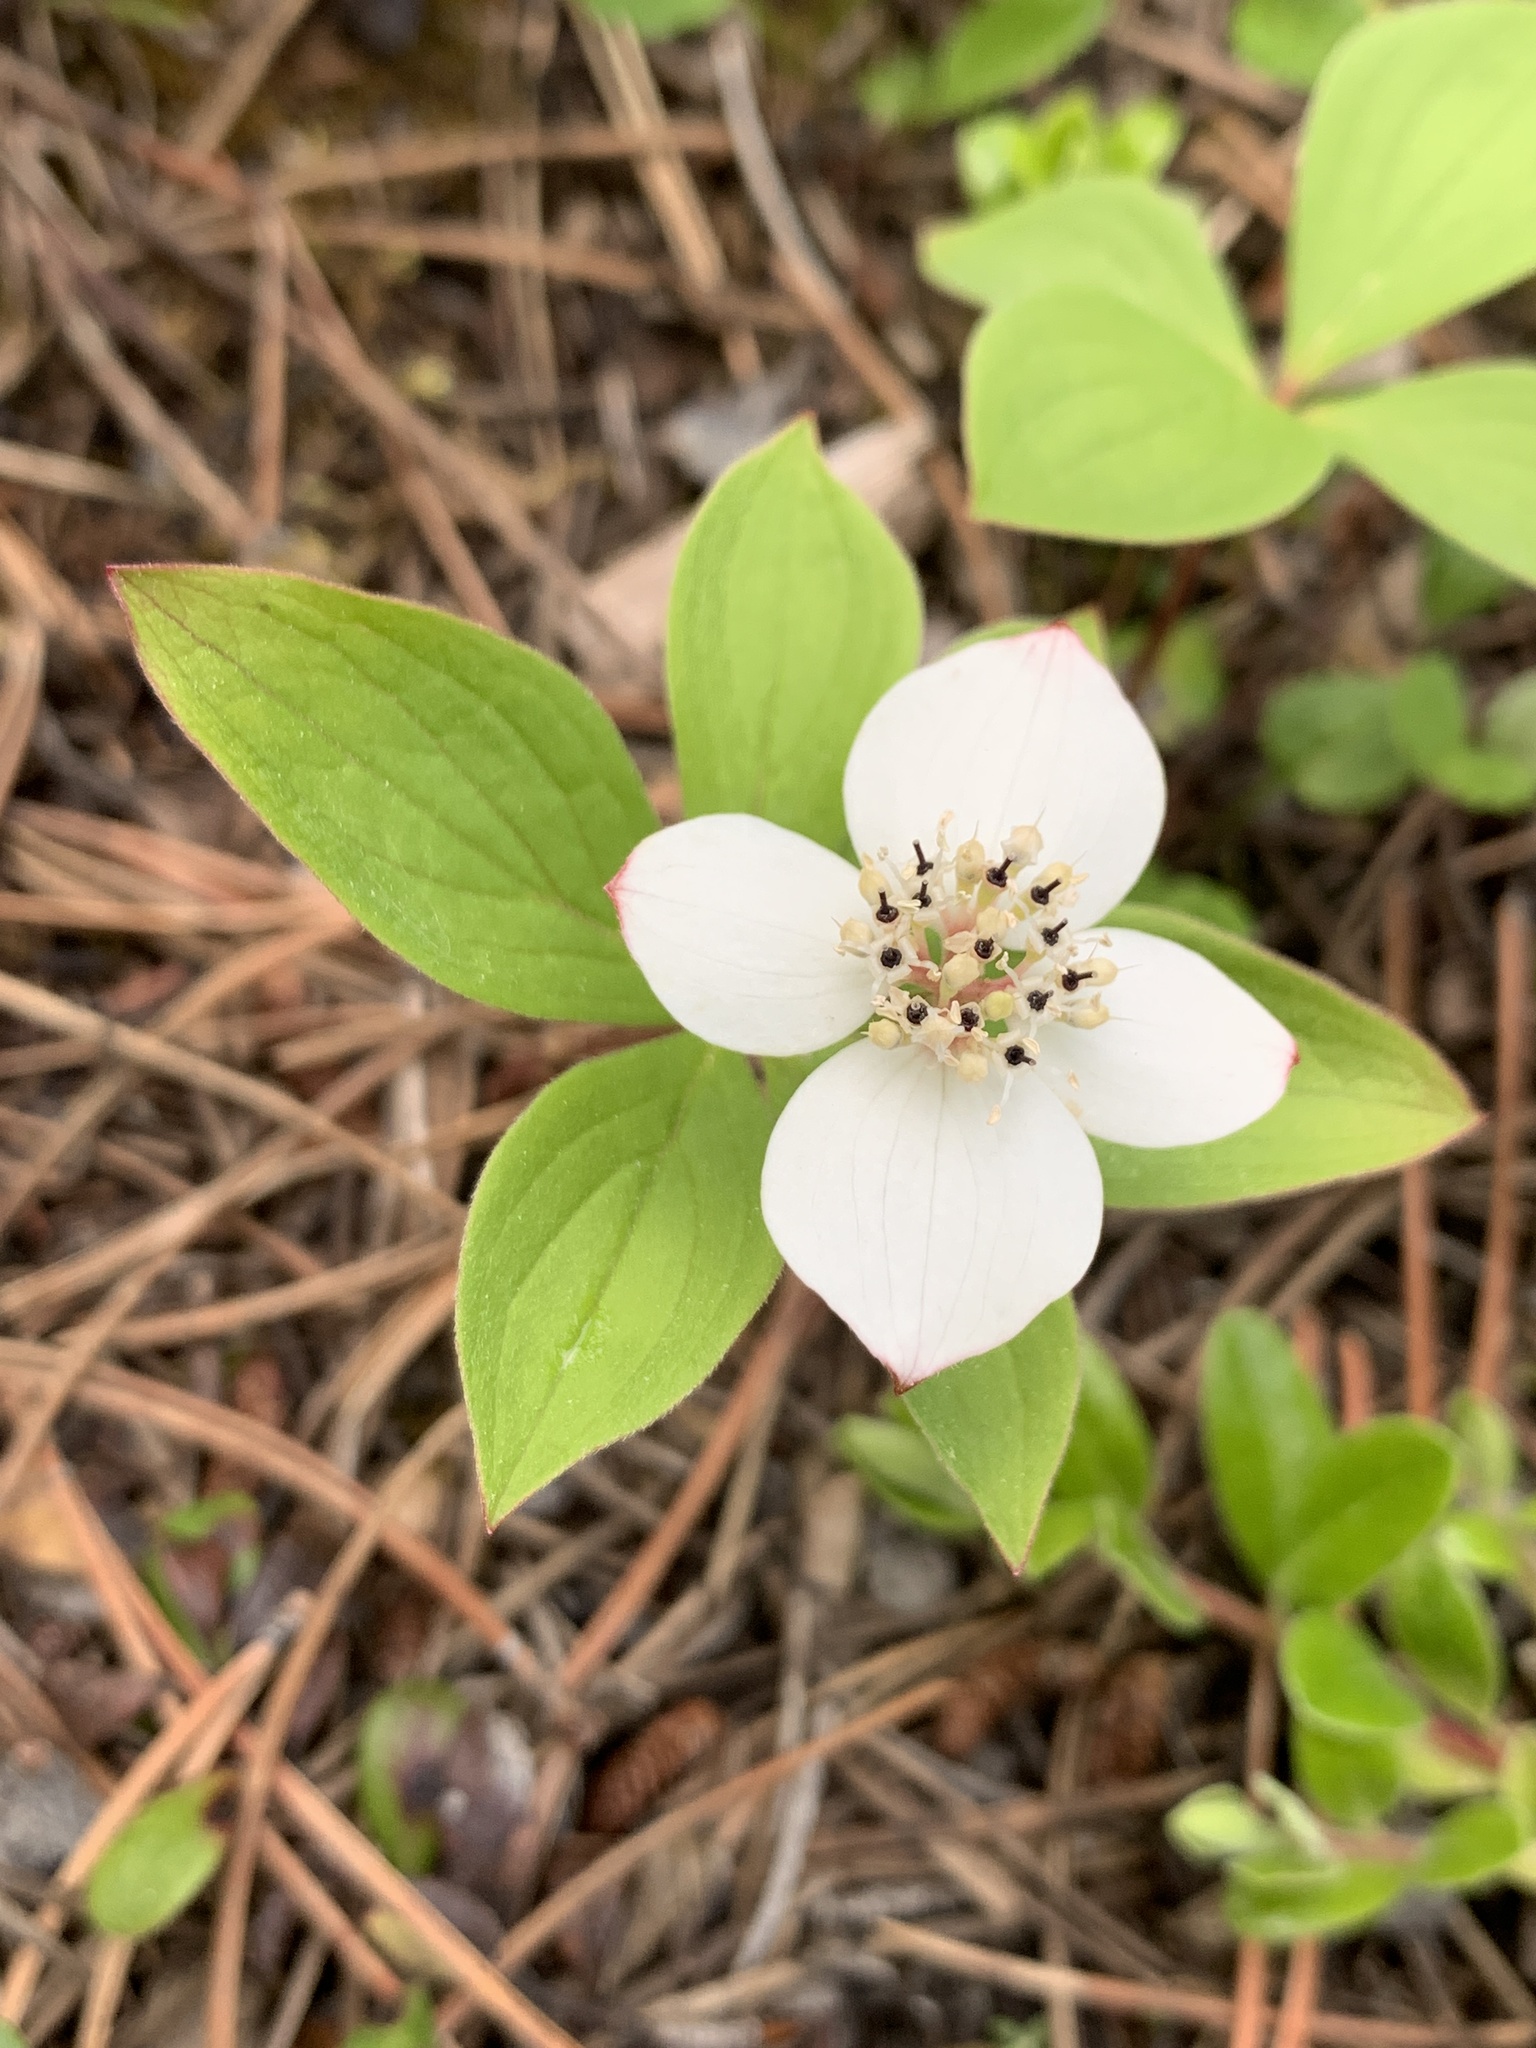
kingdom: Plantae
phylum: Tracheophyta
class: Magnoliopsida
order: Cornales
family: Cornaceae
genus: Cornus
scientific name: Cornus canadensis
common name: Creeping dogwood
